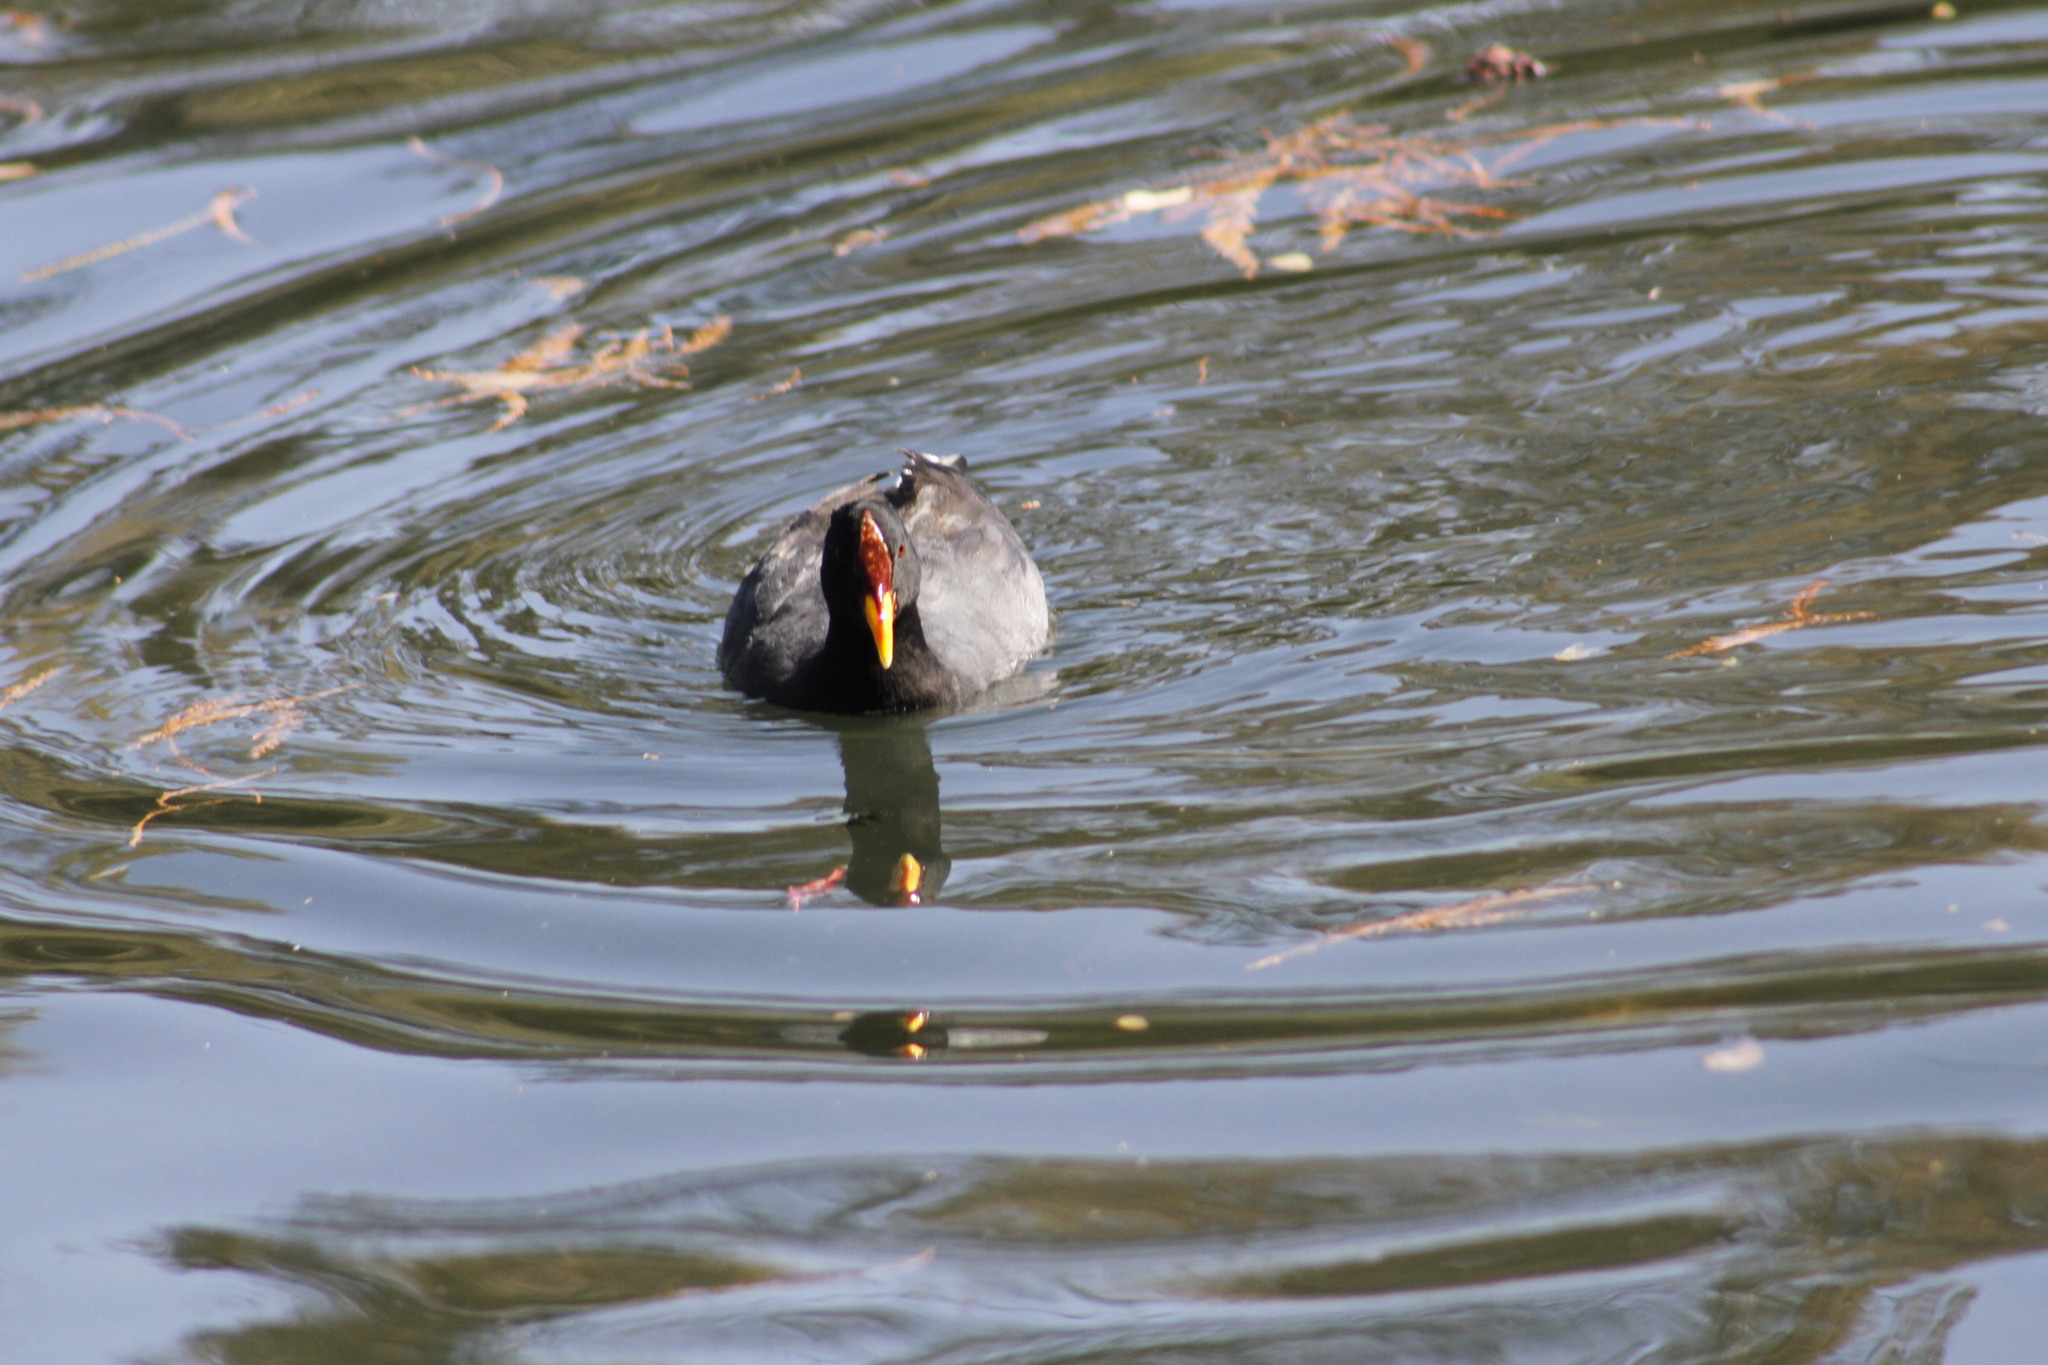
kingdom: Animalia
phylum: Chordata
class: Aves
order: Gruiformes
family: Rallidae
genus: Fulica
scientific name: Fulica rufifrons
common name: Red-fronted coot
